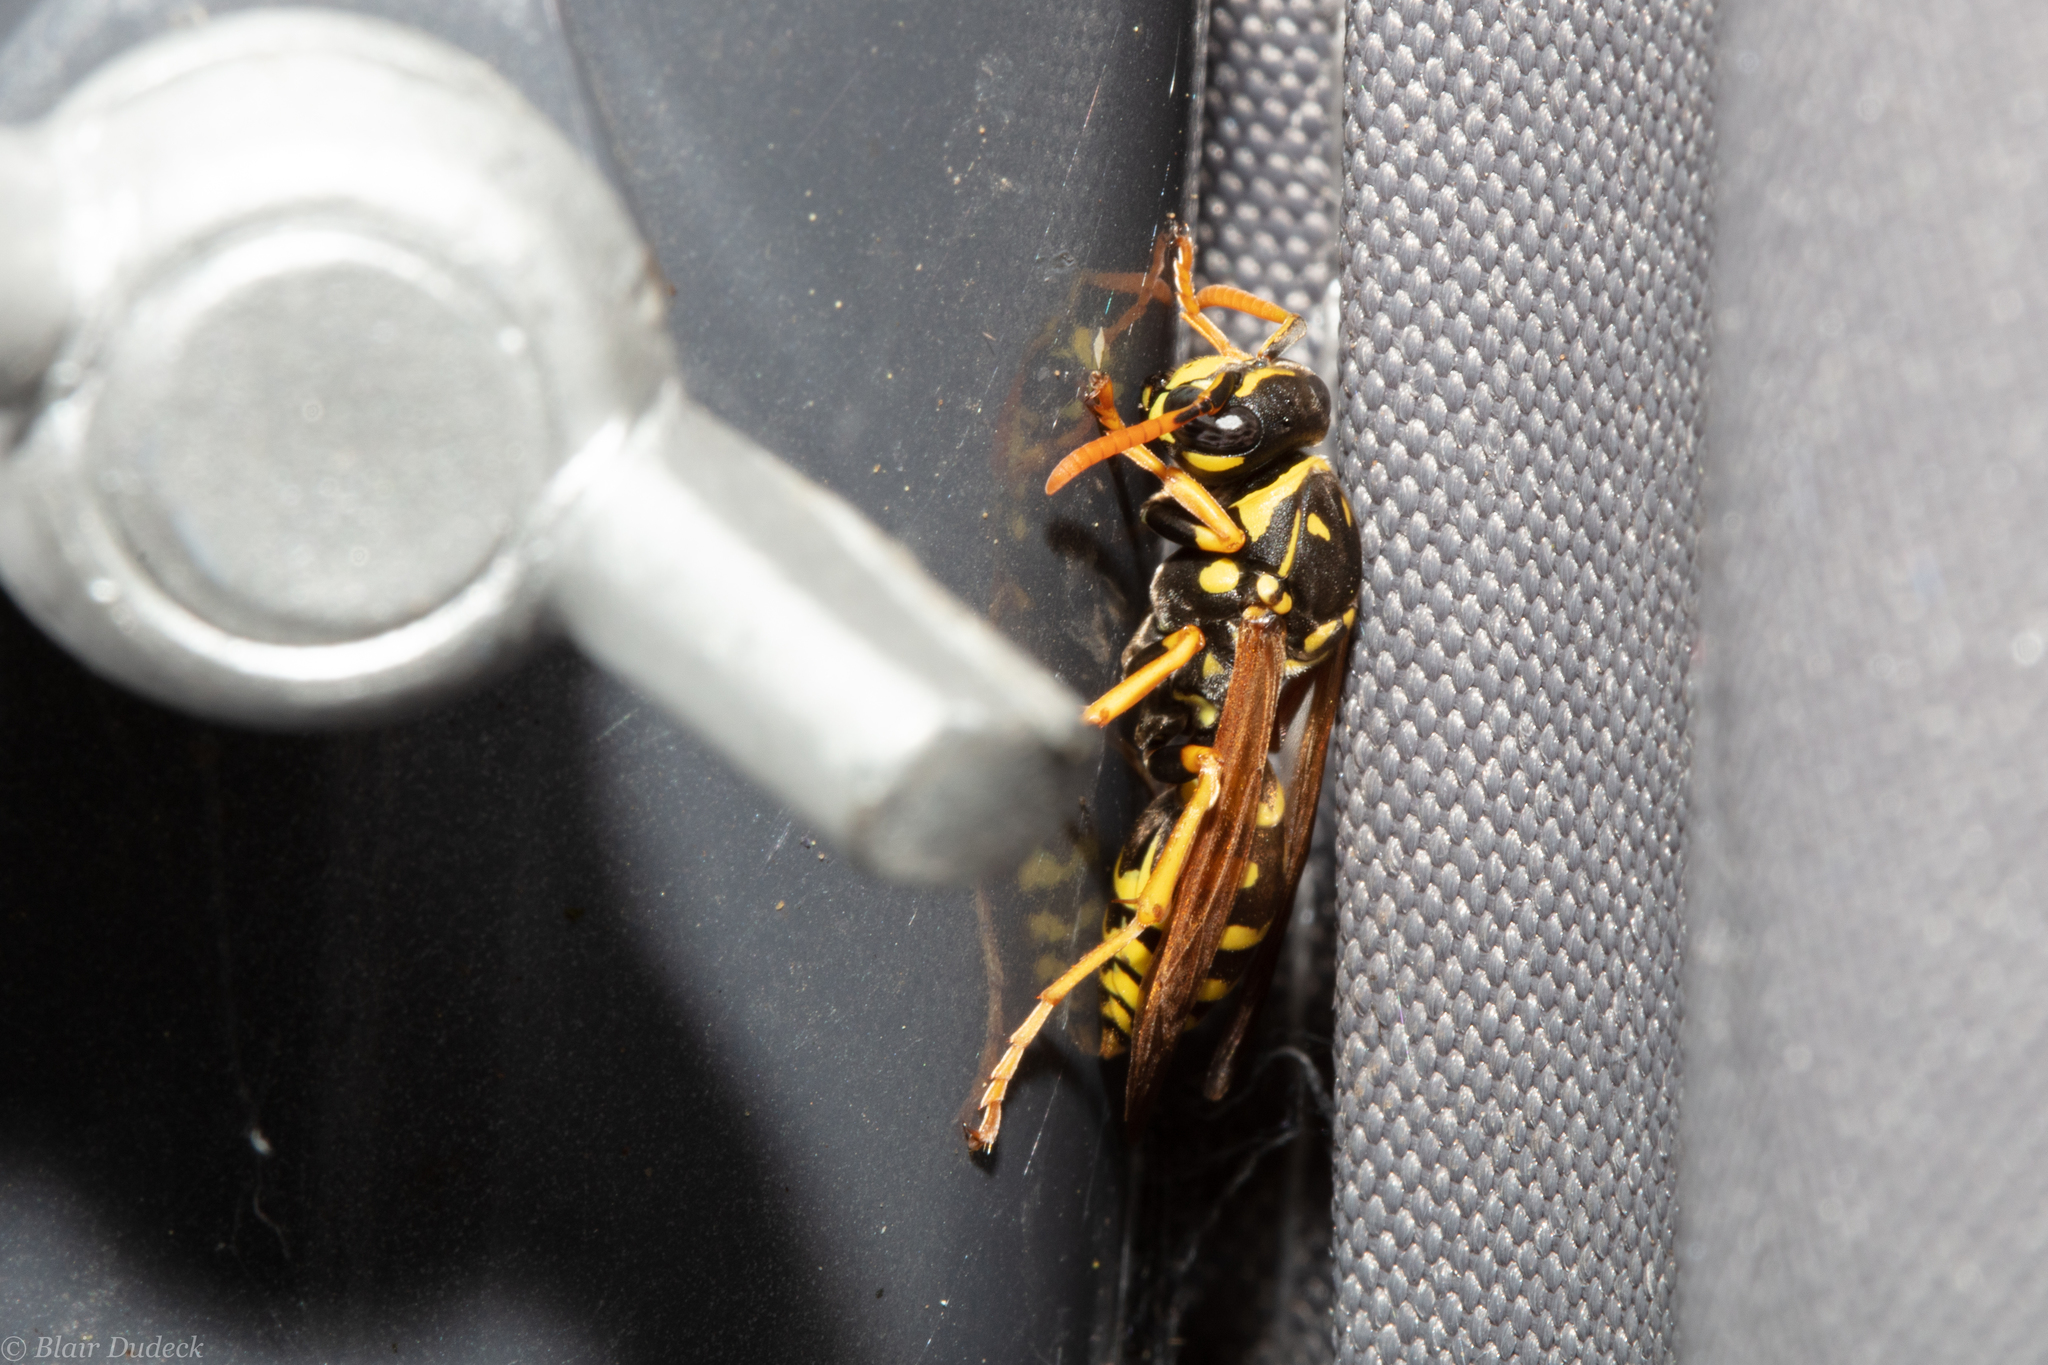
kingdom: Animalia
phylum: Arthropoda
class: Insecta
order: Hymenoptera
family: Eumenidae
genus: Polistes
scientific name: Polistes dominula
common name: Paper wasp
